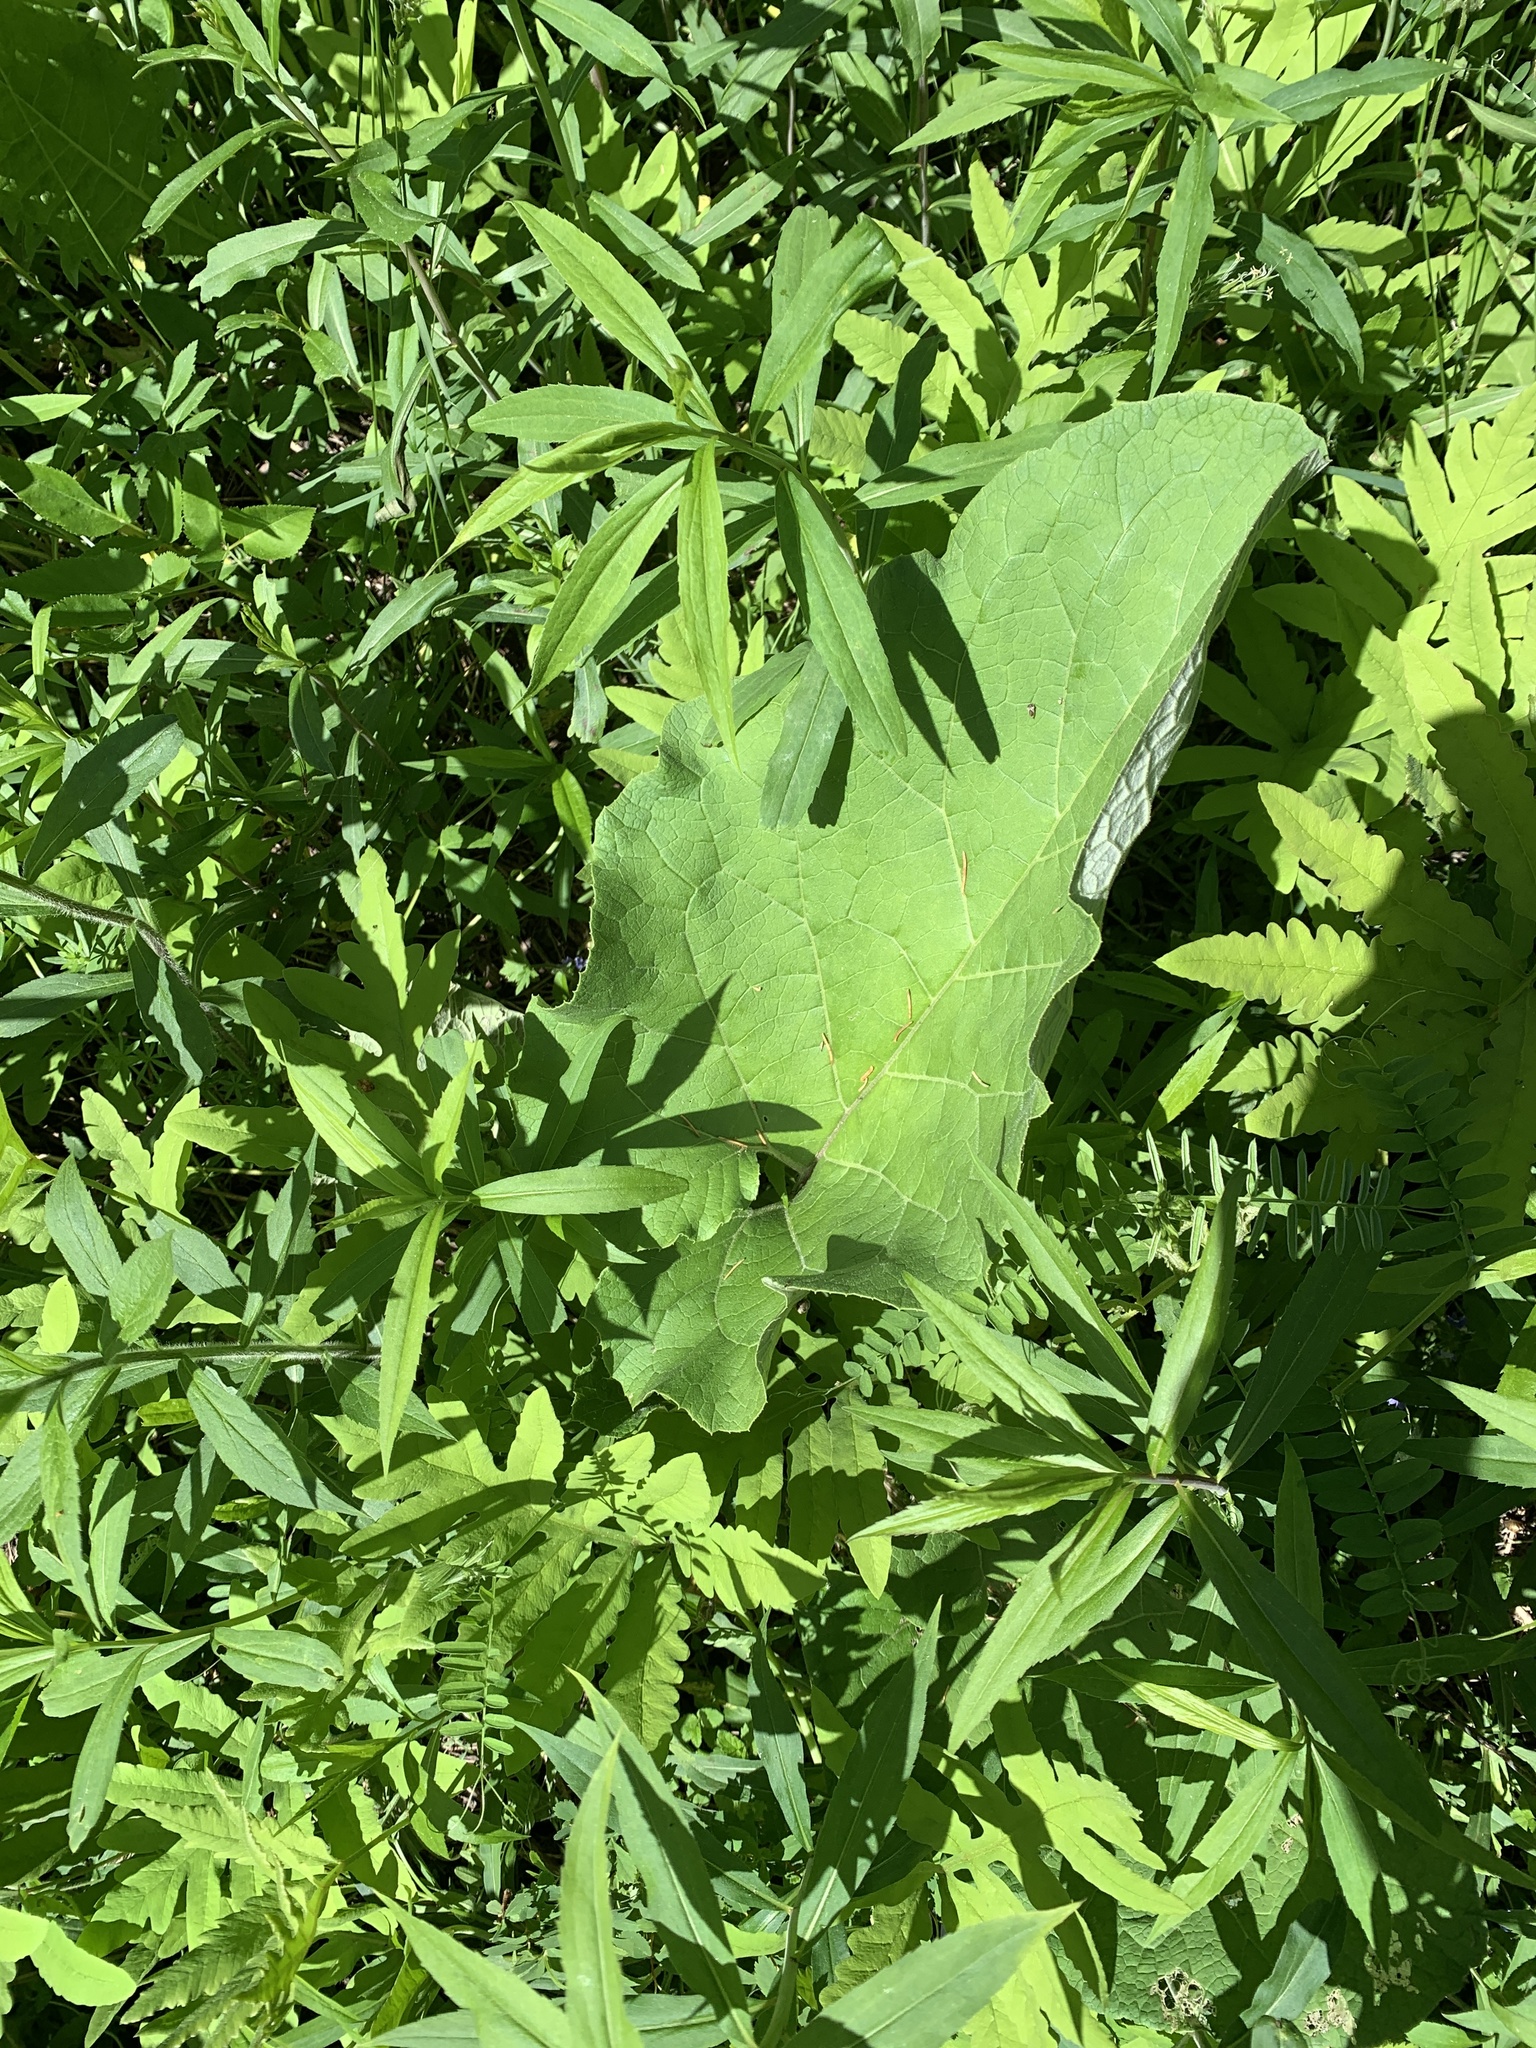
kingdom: Plantae
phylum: Tracheophyta
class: Magnoliopsida
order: Asterales
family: Asteraceae
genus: Arctium
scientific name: Arctium
